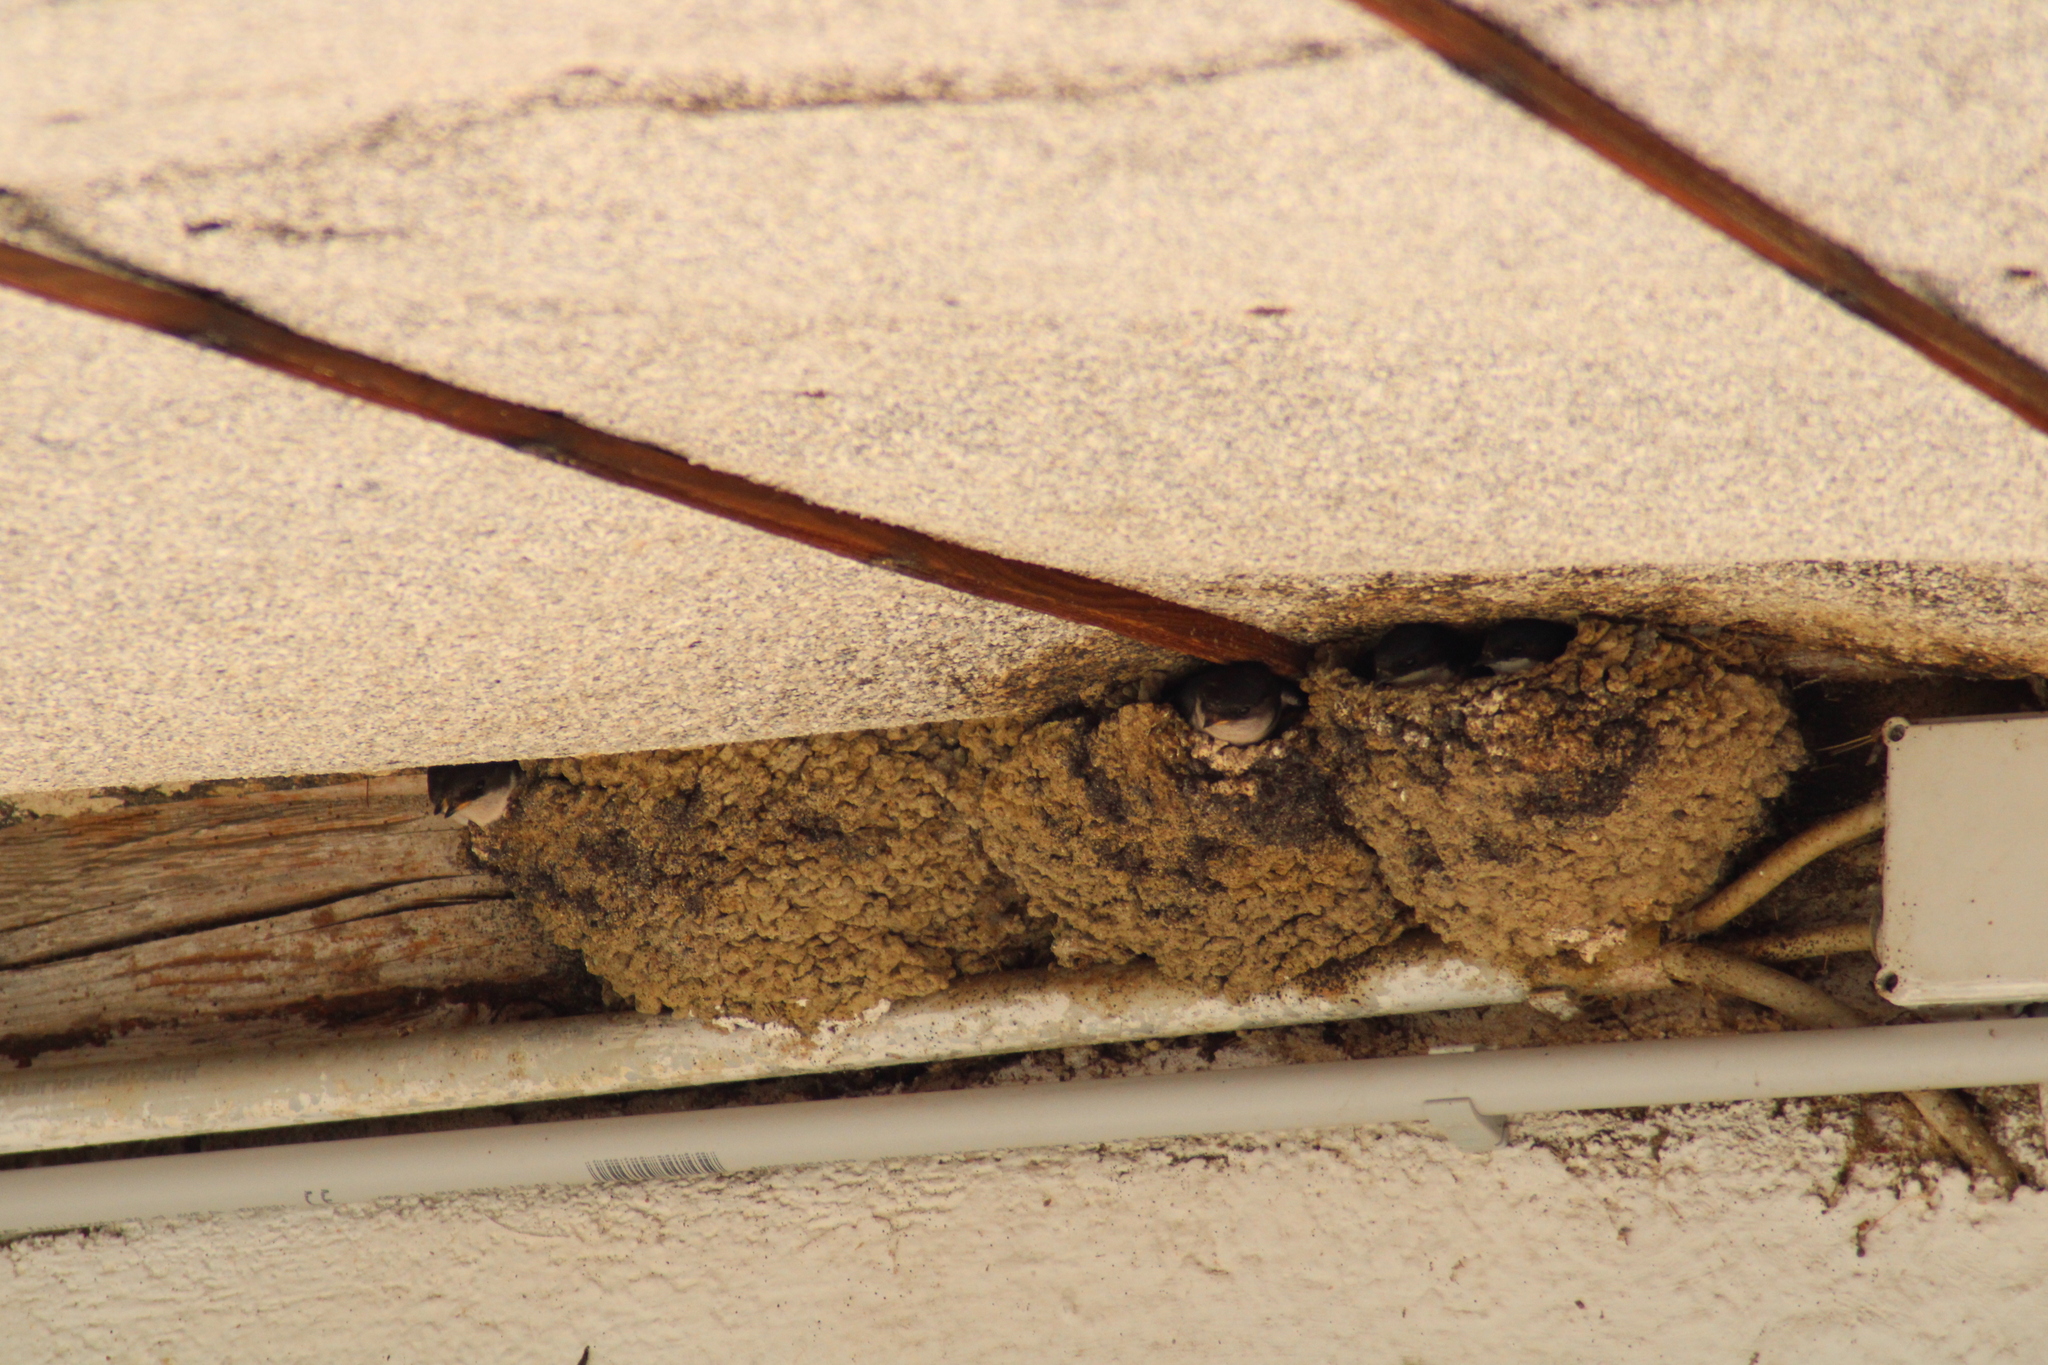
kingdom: Animalia
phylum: Chordata
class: Aves
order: Passeriformes
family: Hirundinidae
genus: Delichon
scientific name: Delichon urbicum
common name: Common house martin
